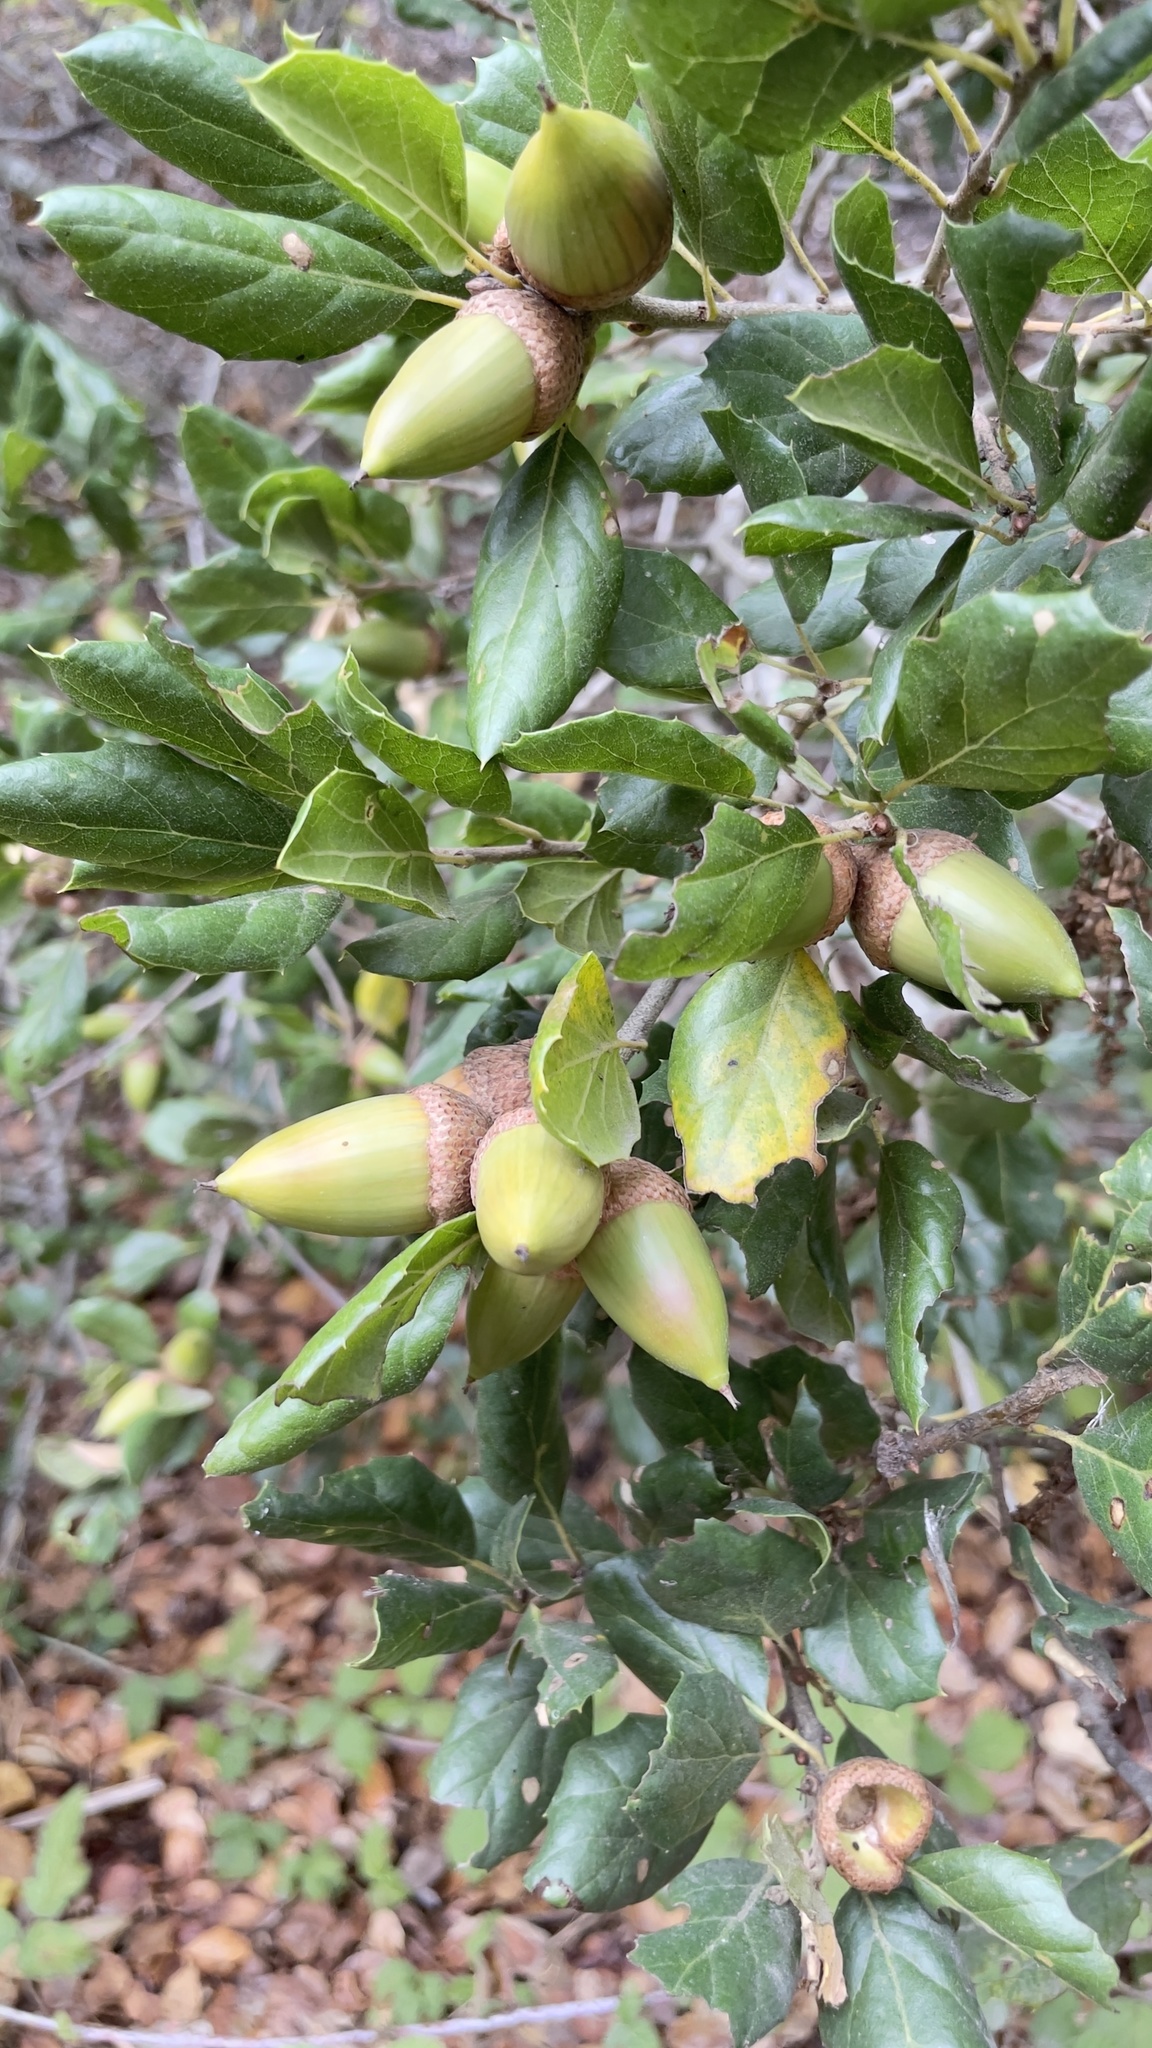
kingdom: Plantae
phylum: Tracheophyta
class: Magnoliopsida
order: Fagales
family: Fagaceae
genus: Quercus
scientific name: Quercus agrifolia
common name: California live oak
